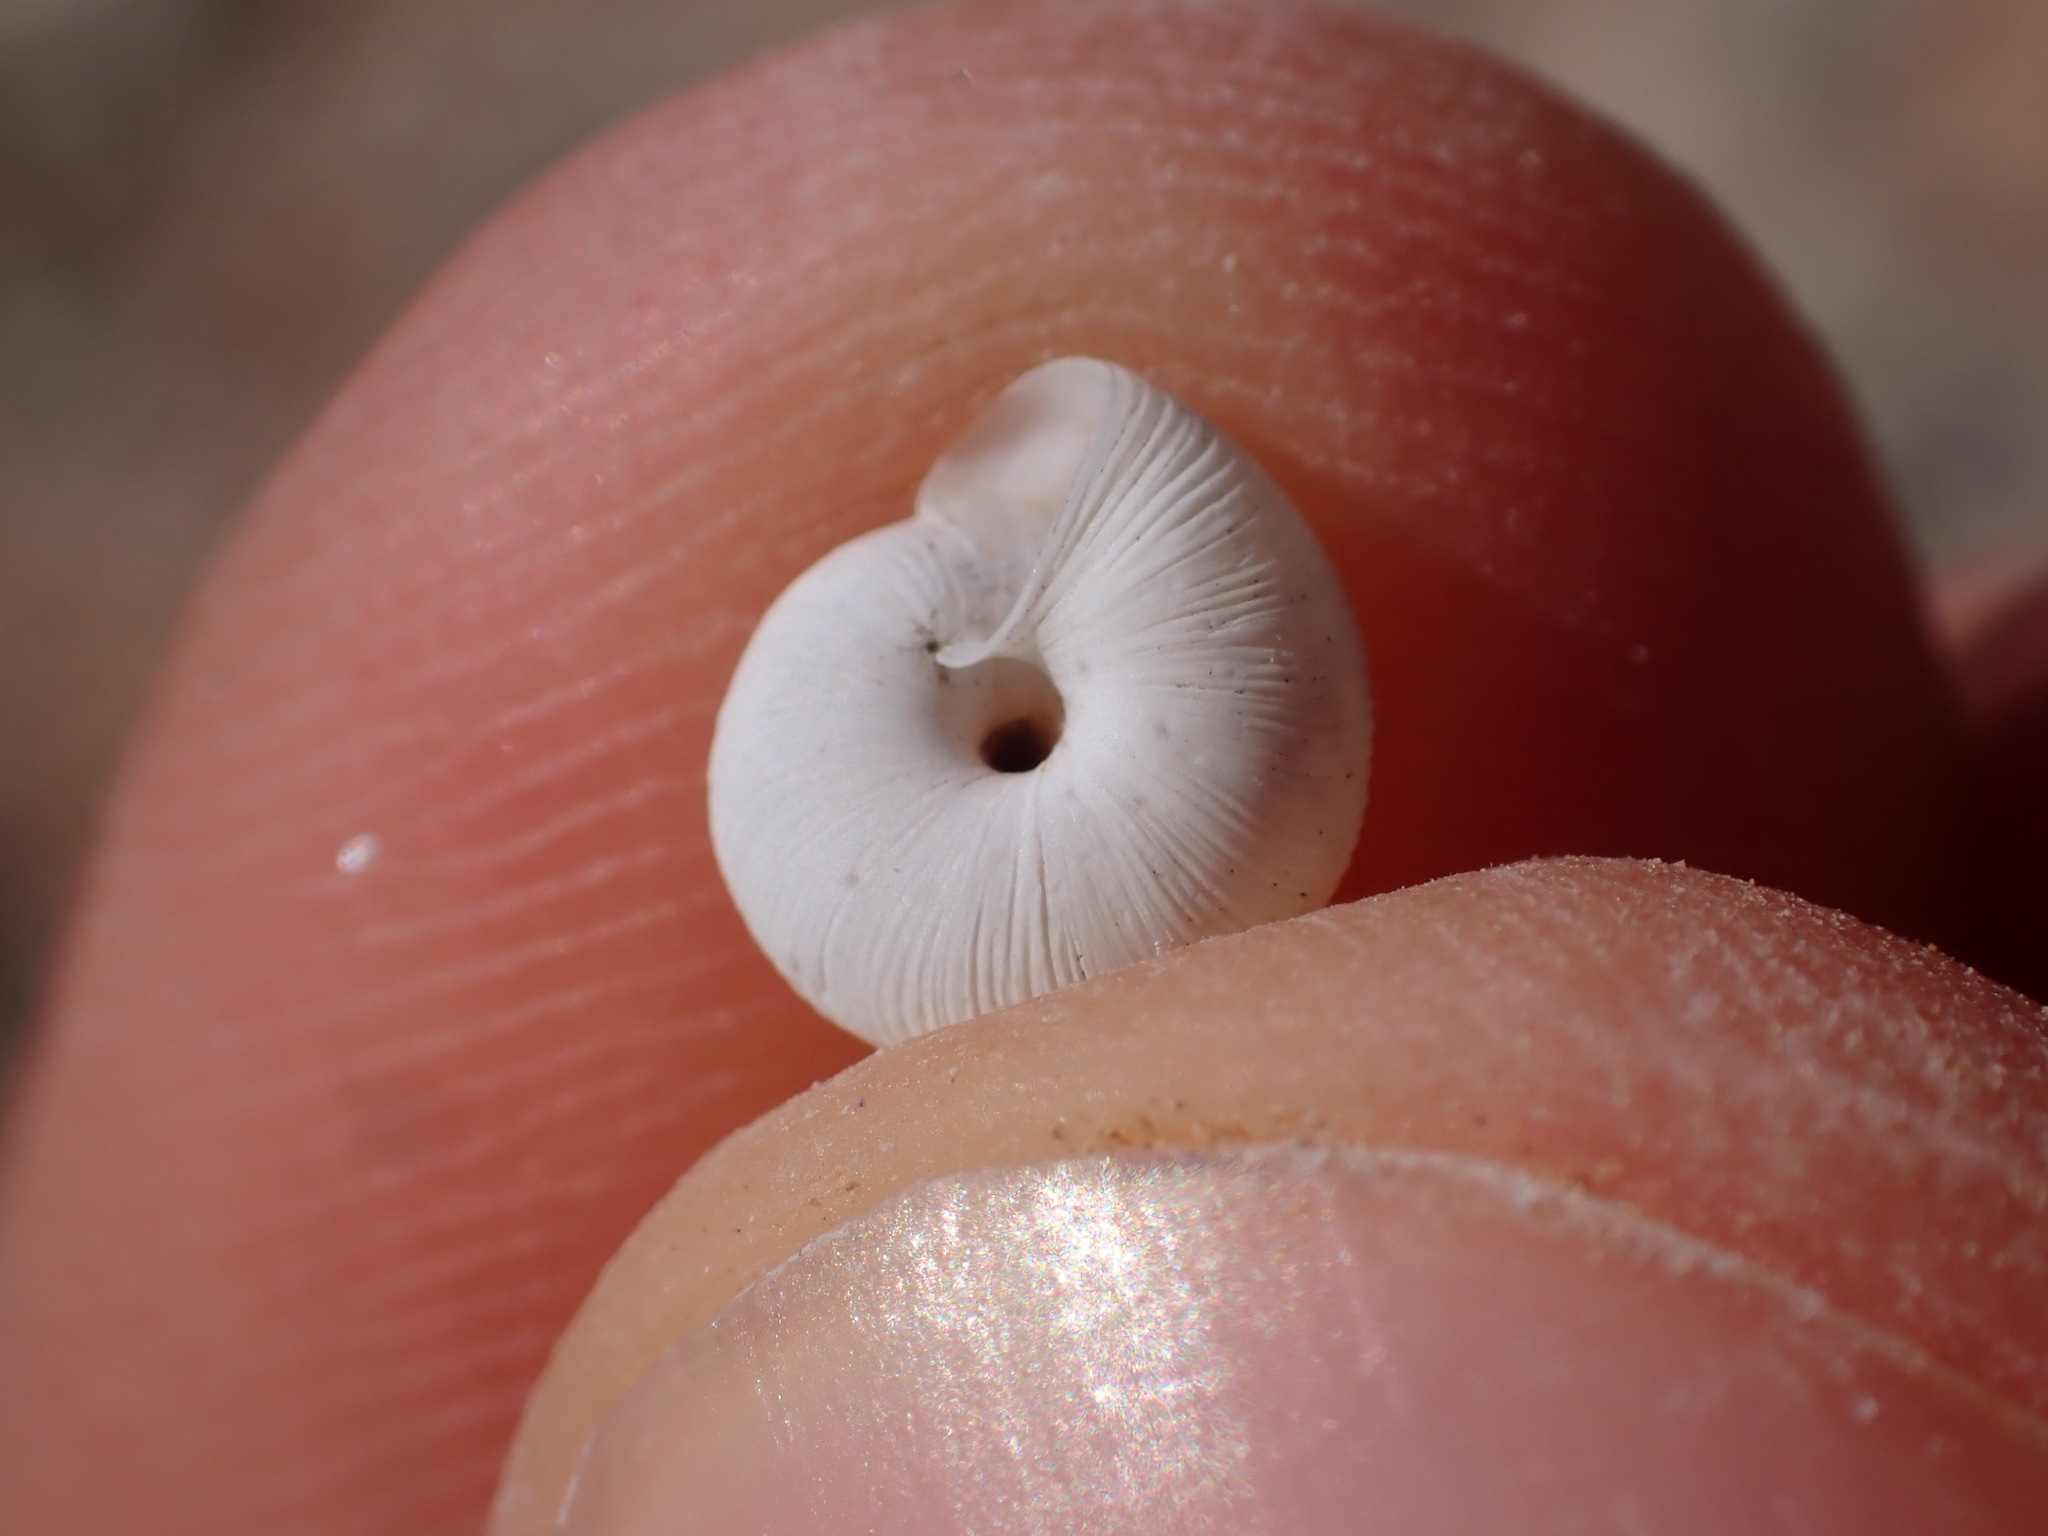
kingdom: Animalia
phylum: Mollusca
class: Gastropoda
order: Stylommatophora
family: Geomitridae
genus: Candidula
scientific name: Candidula unifasciata
